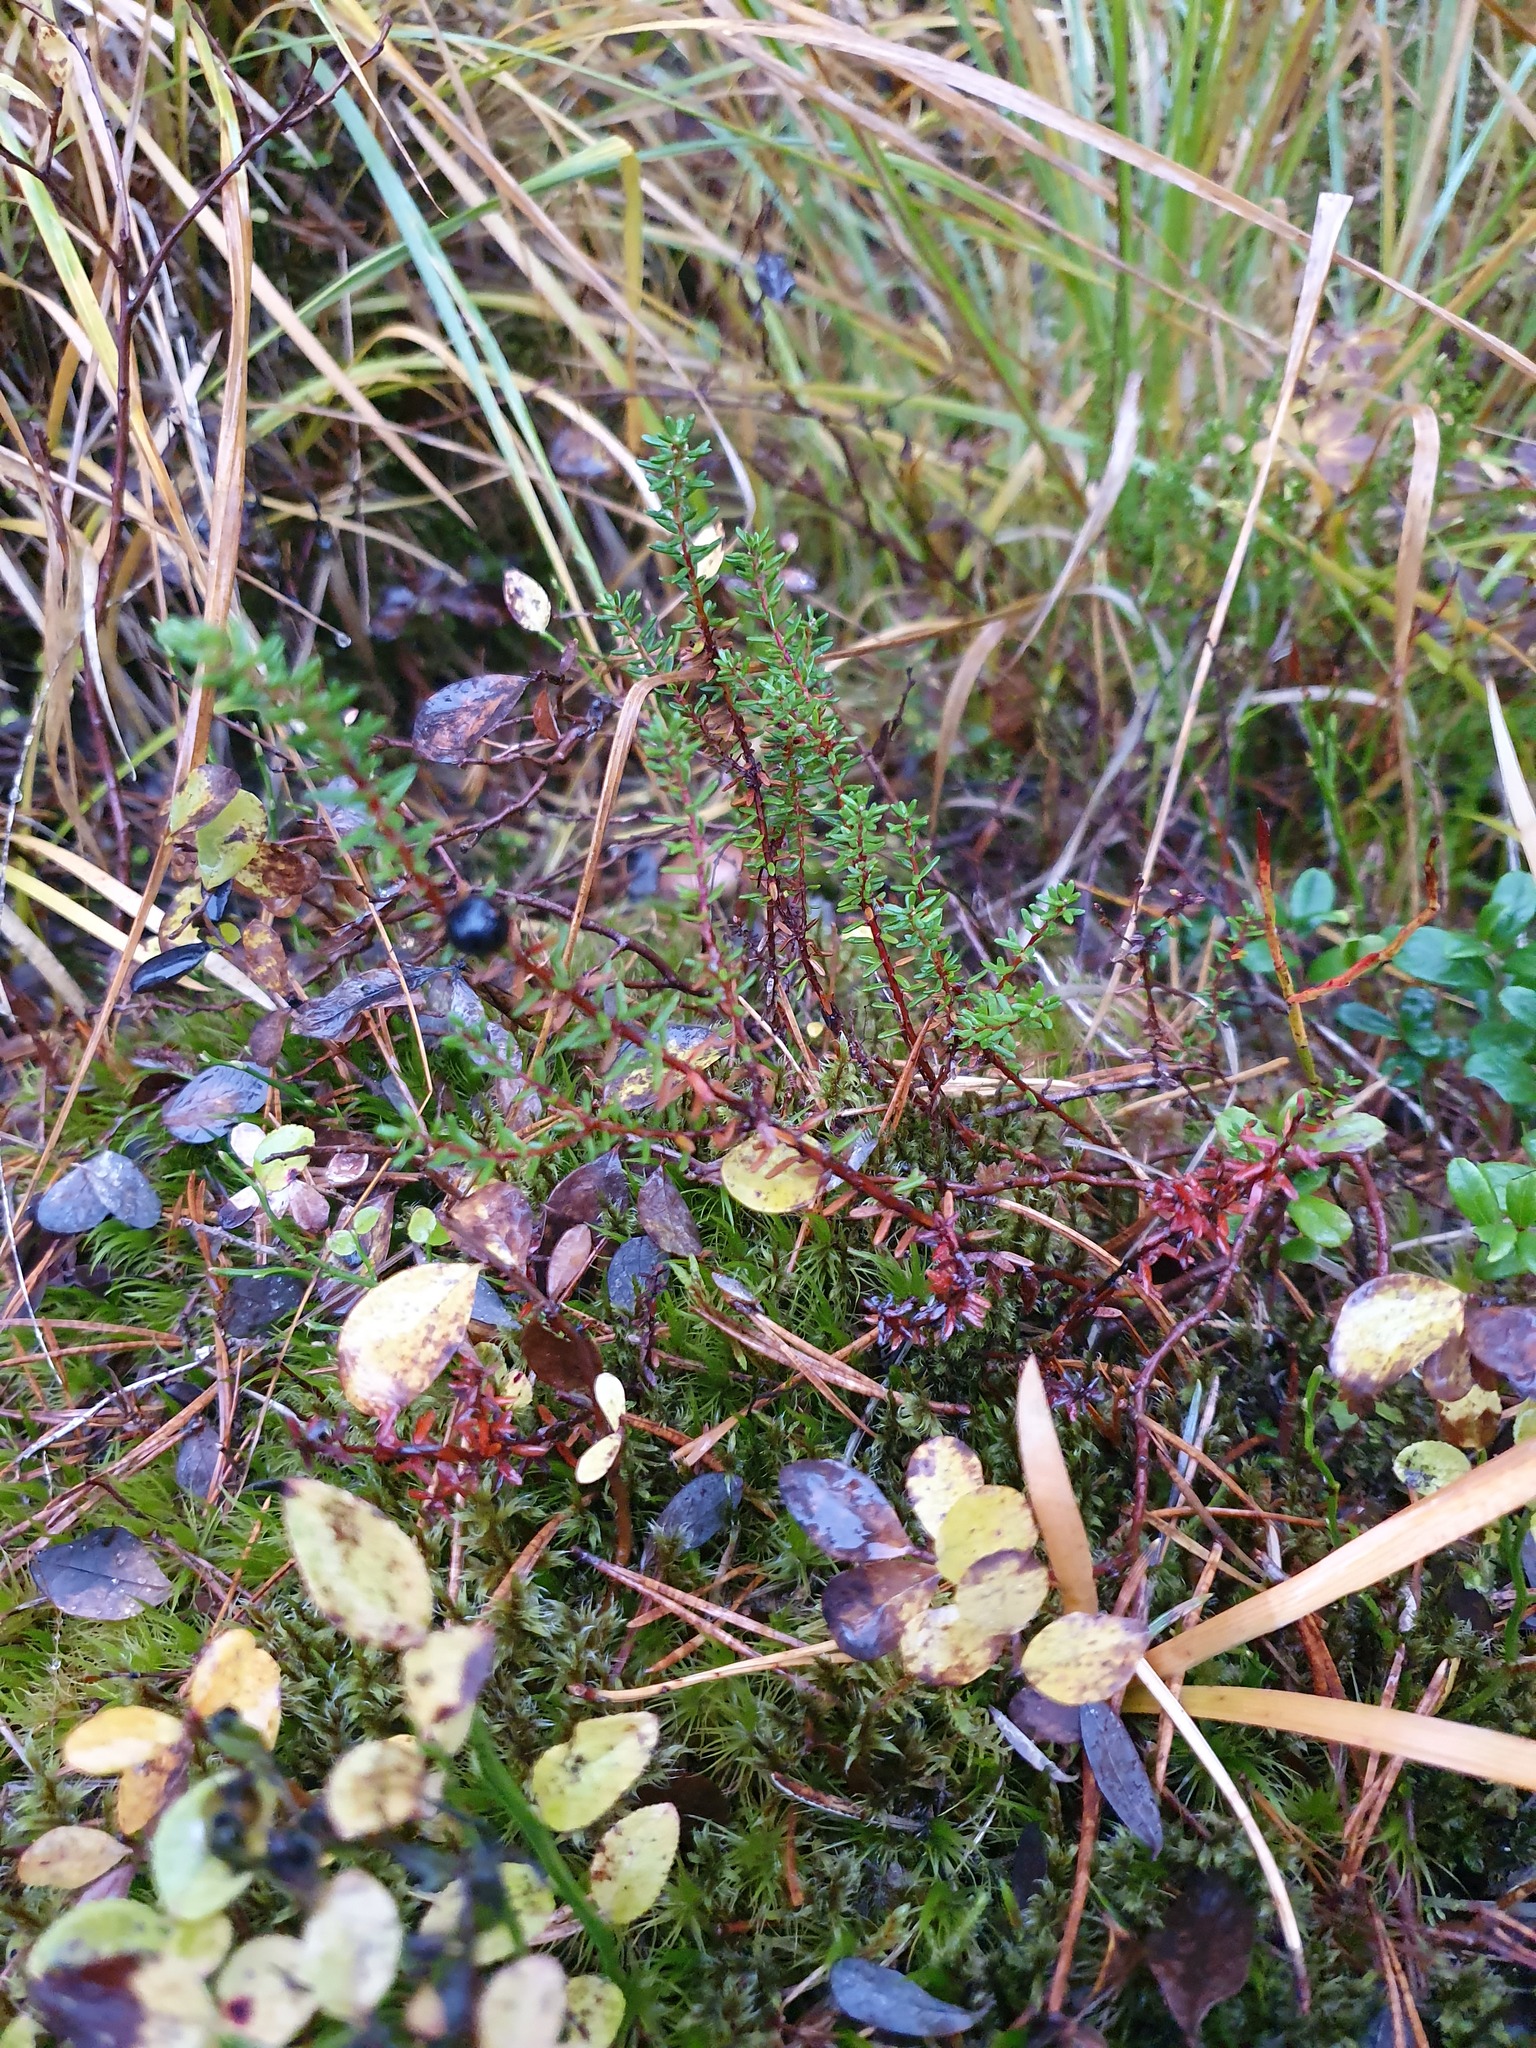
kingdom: Plantae
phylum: Tracheophyta
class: Magnoliopsida
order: Ericales
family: Ericaceae
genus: Empetrum
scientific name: Empetrum nigrum
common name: Black crowberry
